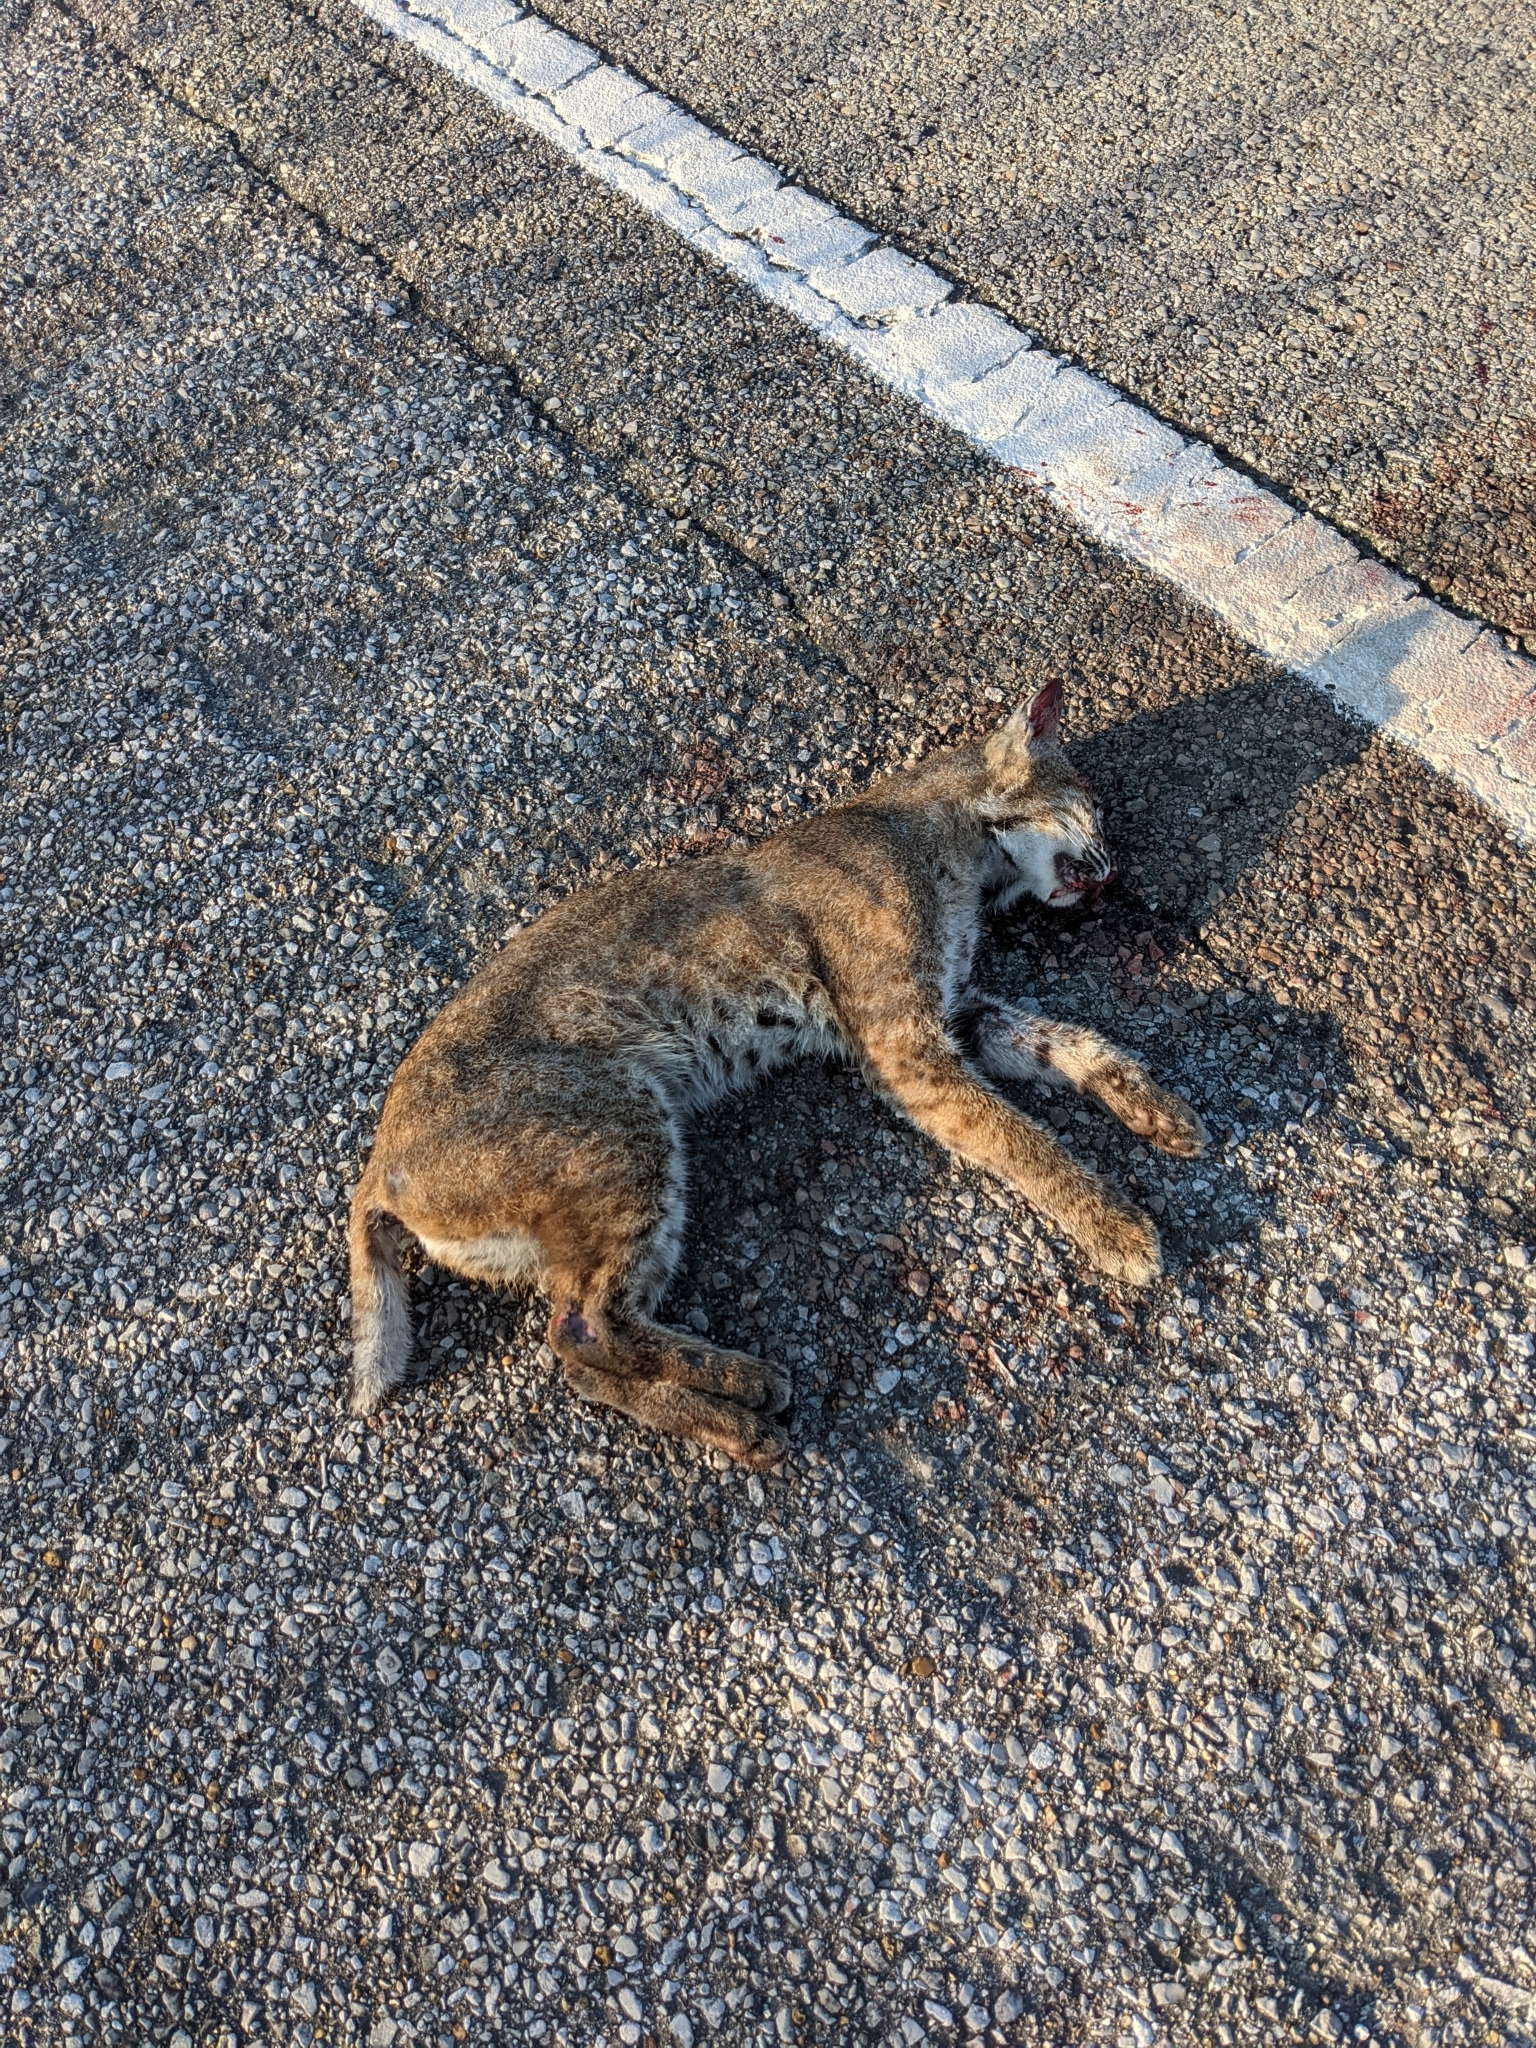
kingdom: Animalia
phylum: Chordata
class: Mammalia
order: Carnivora
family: Felidae
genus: Lynx
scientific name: Lynx rufus
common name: Bobcat
